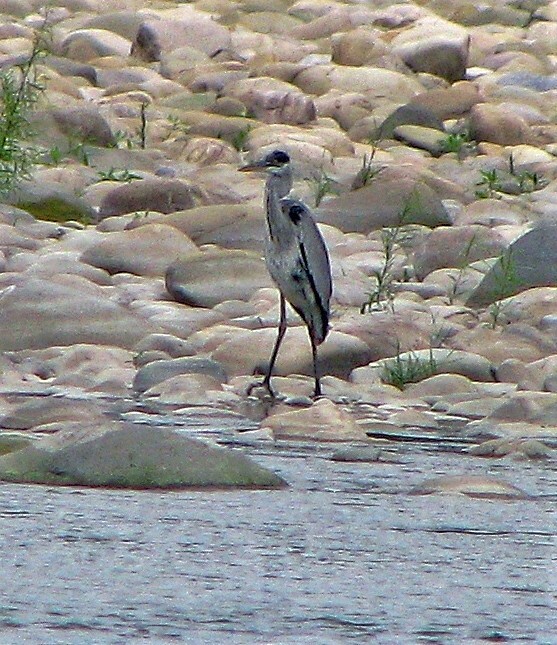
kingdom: Animalia
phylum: Chordata
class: Aves
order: Pelecaniformes
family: Ardeidae
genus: Ardea
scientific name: Ardea cocoi
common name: Cocoi heron
